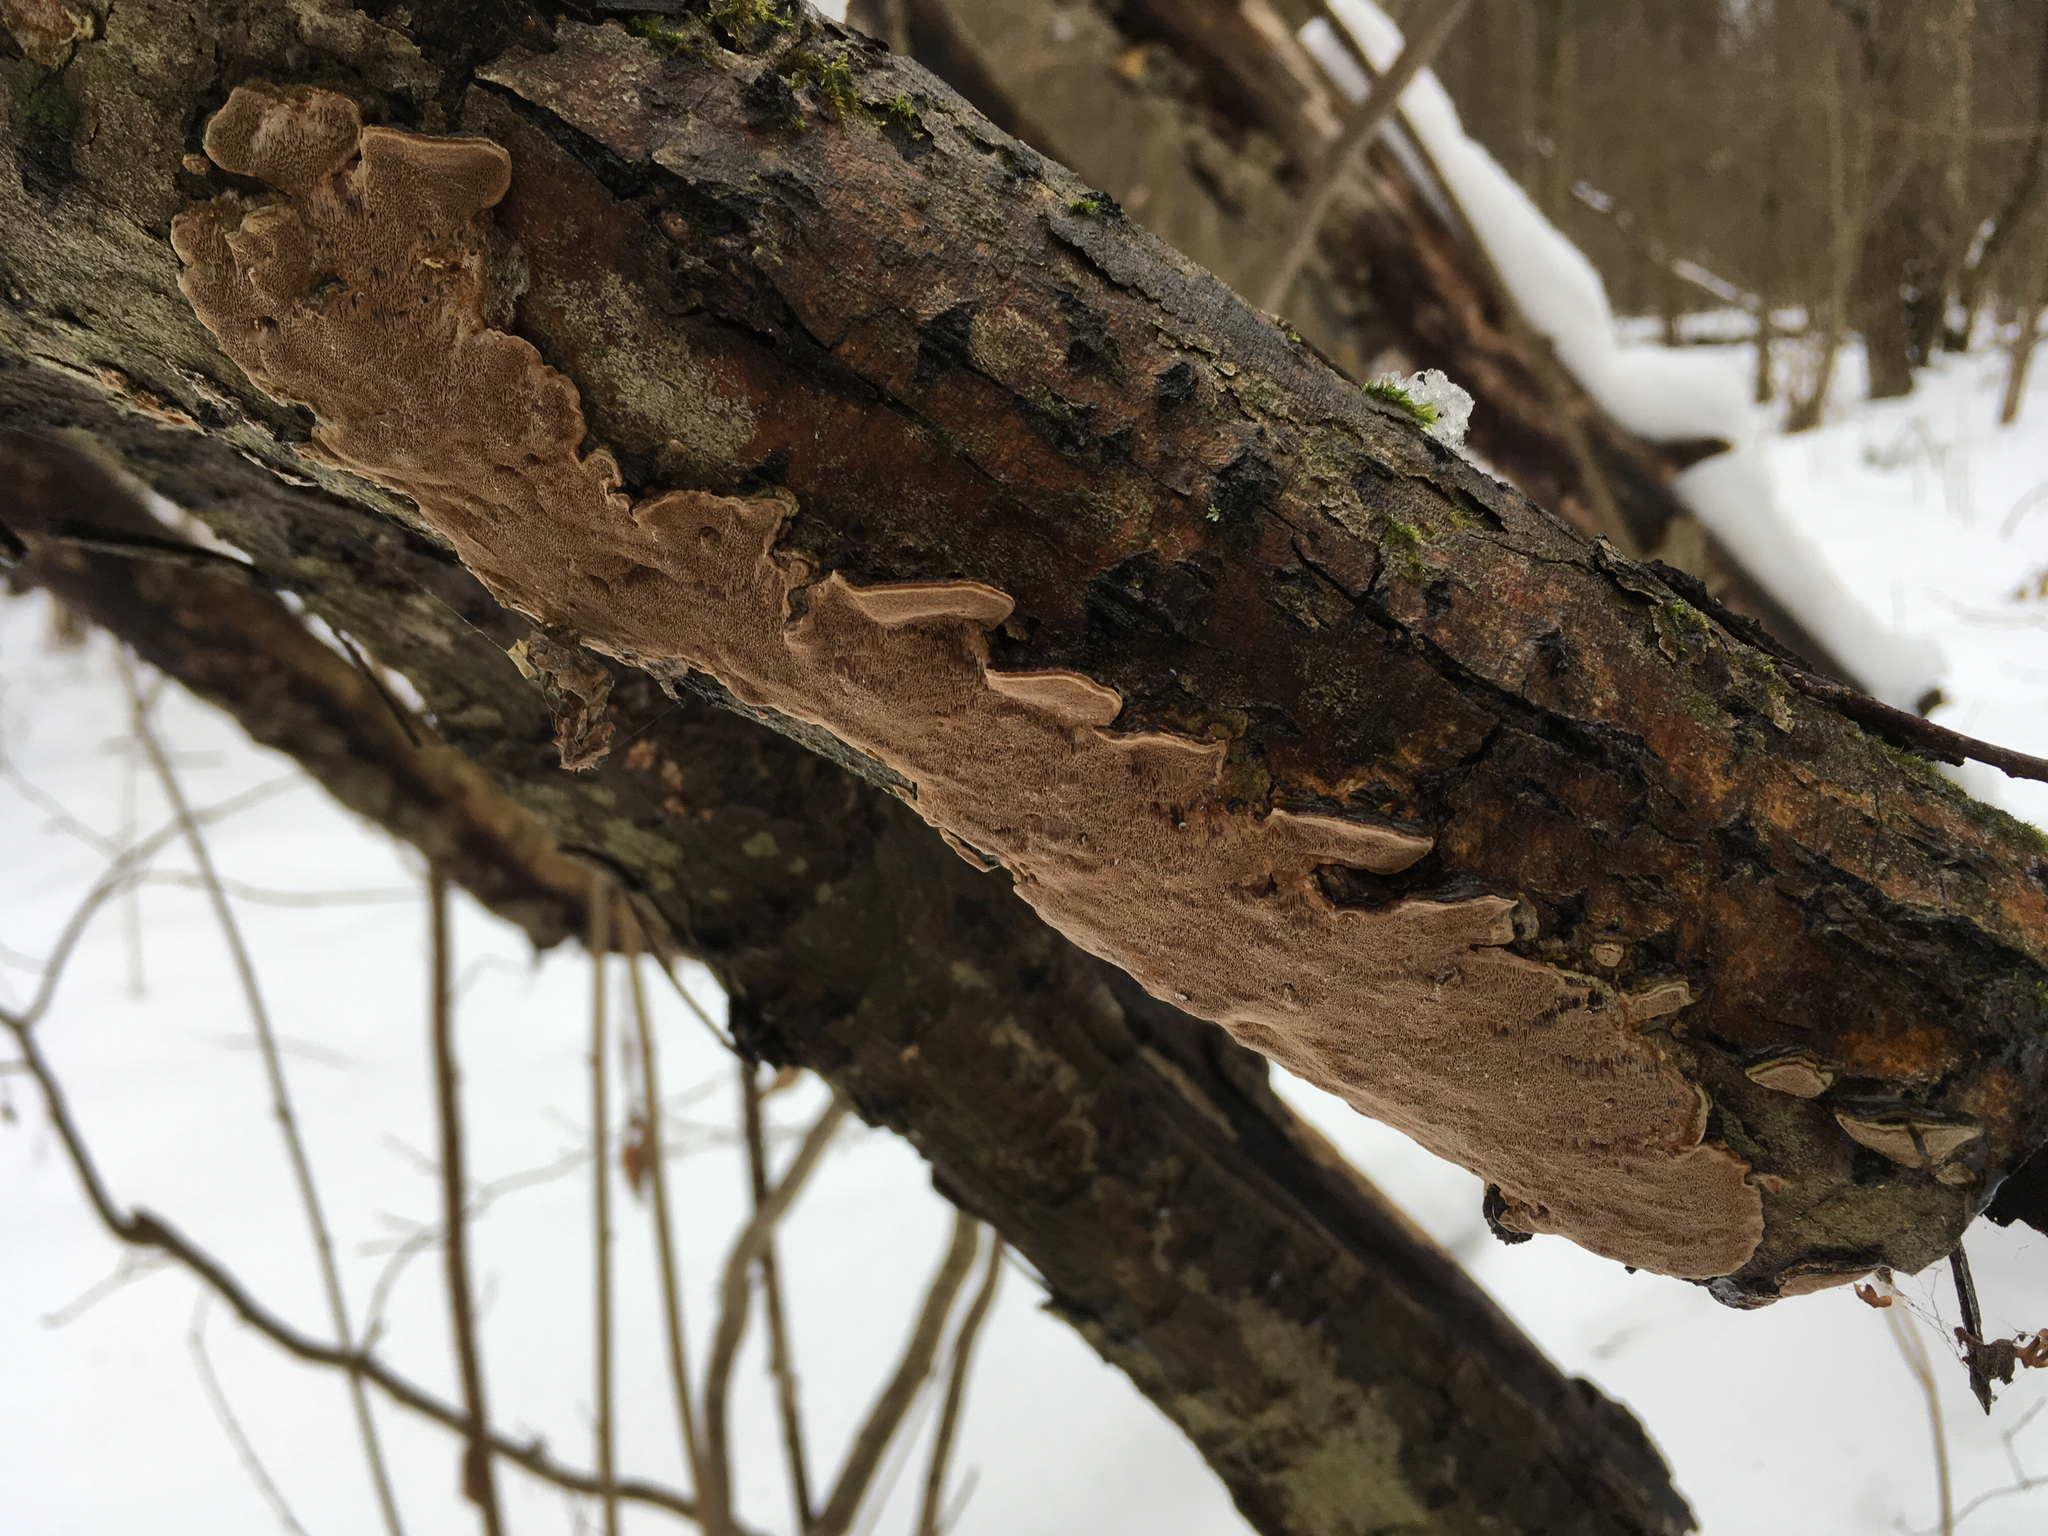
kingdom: Fungi
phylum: Basidiomycota
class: Agaricomycetes
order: Hymenochaetales
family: Hymenochaetaceae
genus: Phellinopsis
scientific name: Phellinopsis conchata
